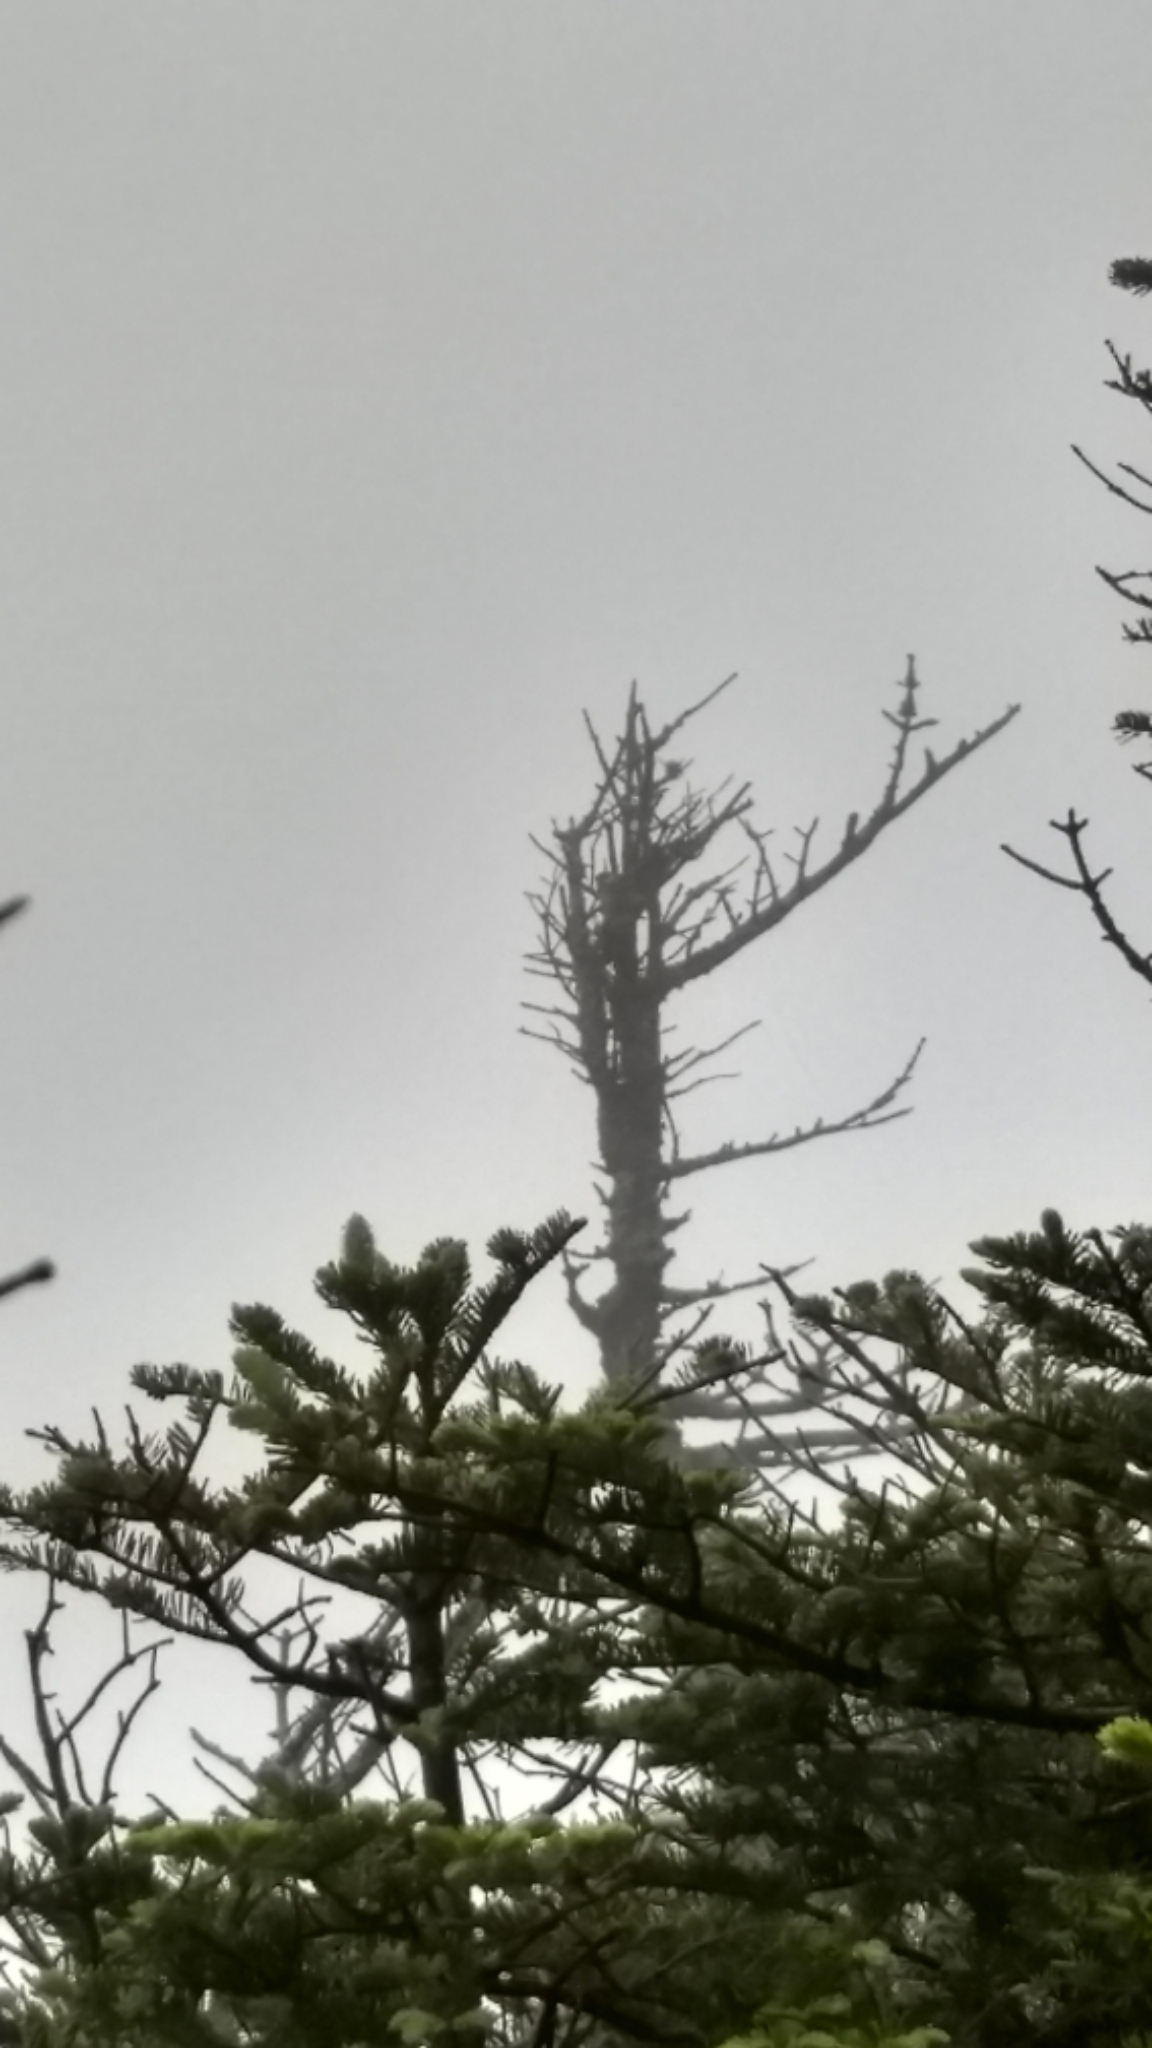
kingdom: Animalia
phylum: Chordata
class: Aves
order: Passeriformes
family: Parulidae
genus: Setophaga
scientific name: Setophaga striata
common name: Blackpoll warbler
